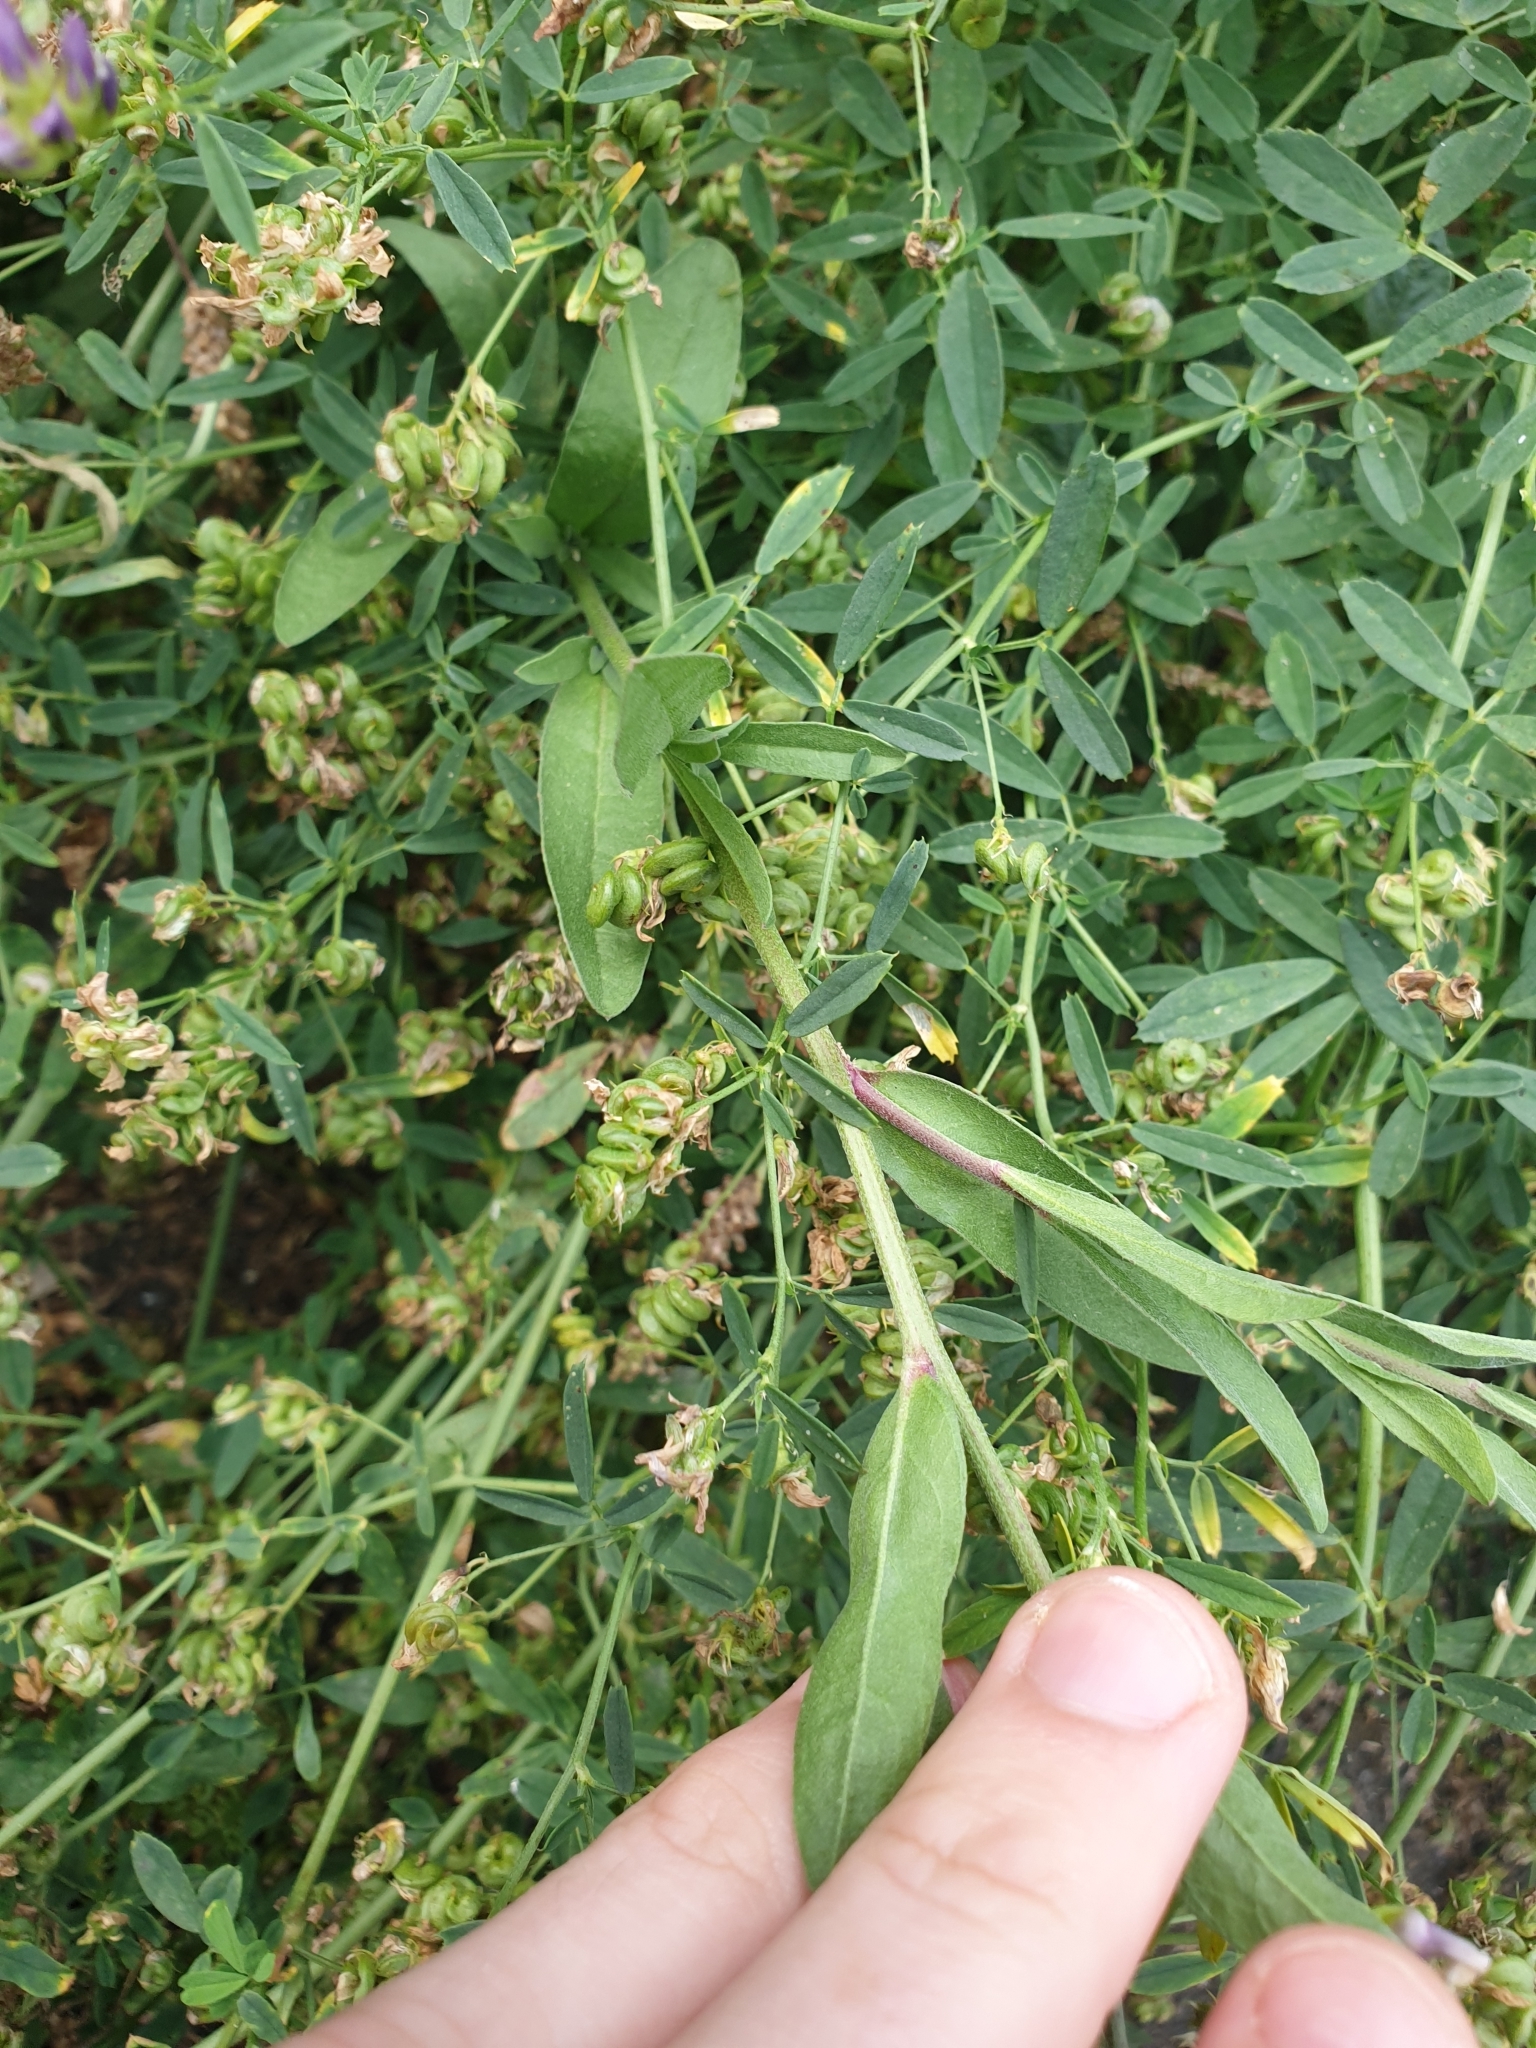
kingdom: Plantae
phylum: Tracheophyta
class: Magnoliopsida
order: Brassicales
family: Brassicaceae
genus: Berteroa
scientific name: Berteroa incana
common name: Hoary alison
